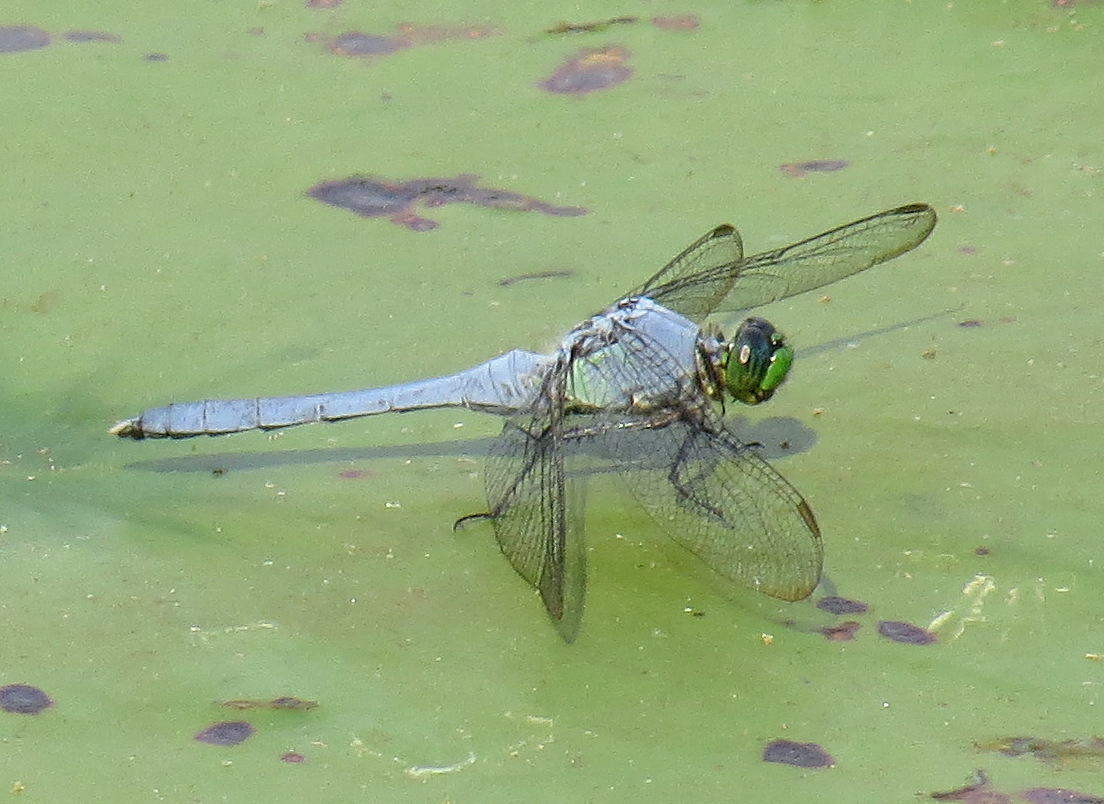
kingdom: Animalia
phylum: Arthropoda
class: Insecta
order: Odonata
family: Libellulidae
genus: Erythemis
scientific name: Erythemis simplicicollis
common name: Eastern pondhawk
